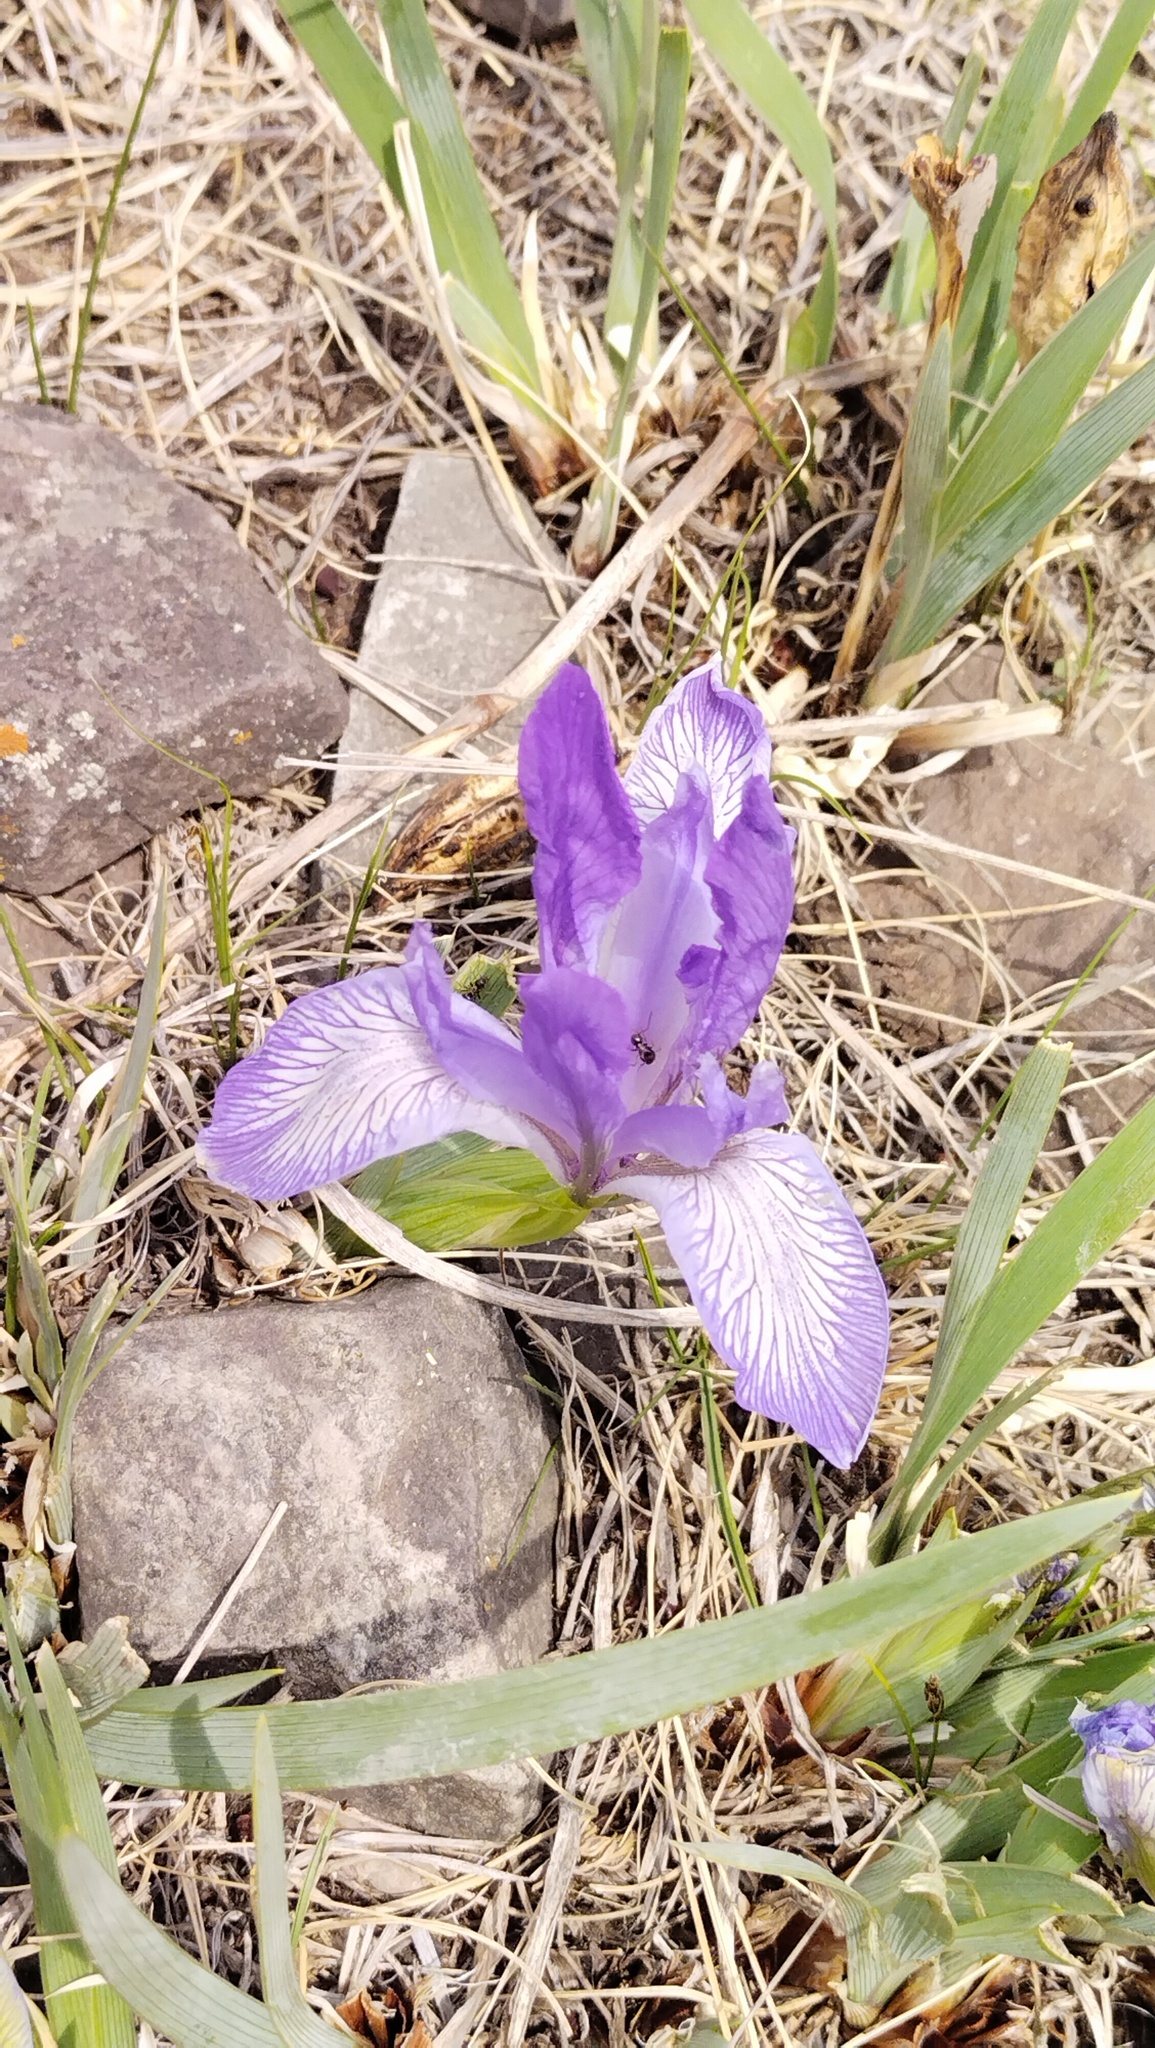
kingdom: Plantae
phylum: Tracheophyta
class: Liliopsida
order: Asparagales
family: Iridaceae
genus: Iris
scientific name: Iris lactea
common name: White-flower chinese iris
